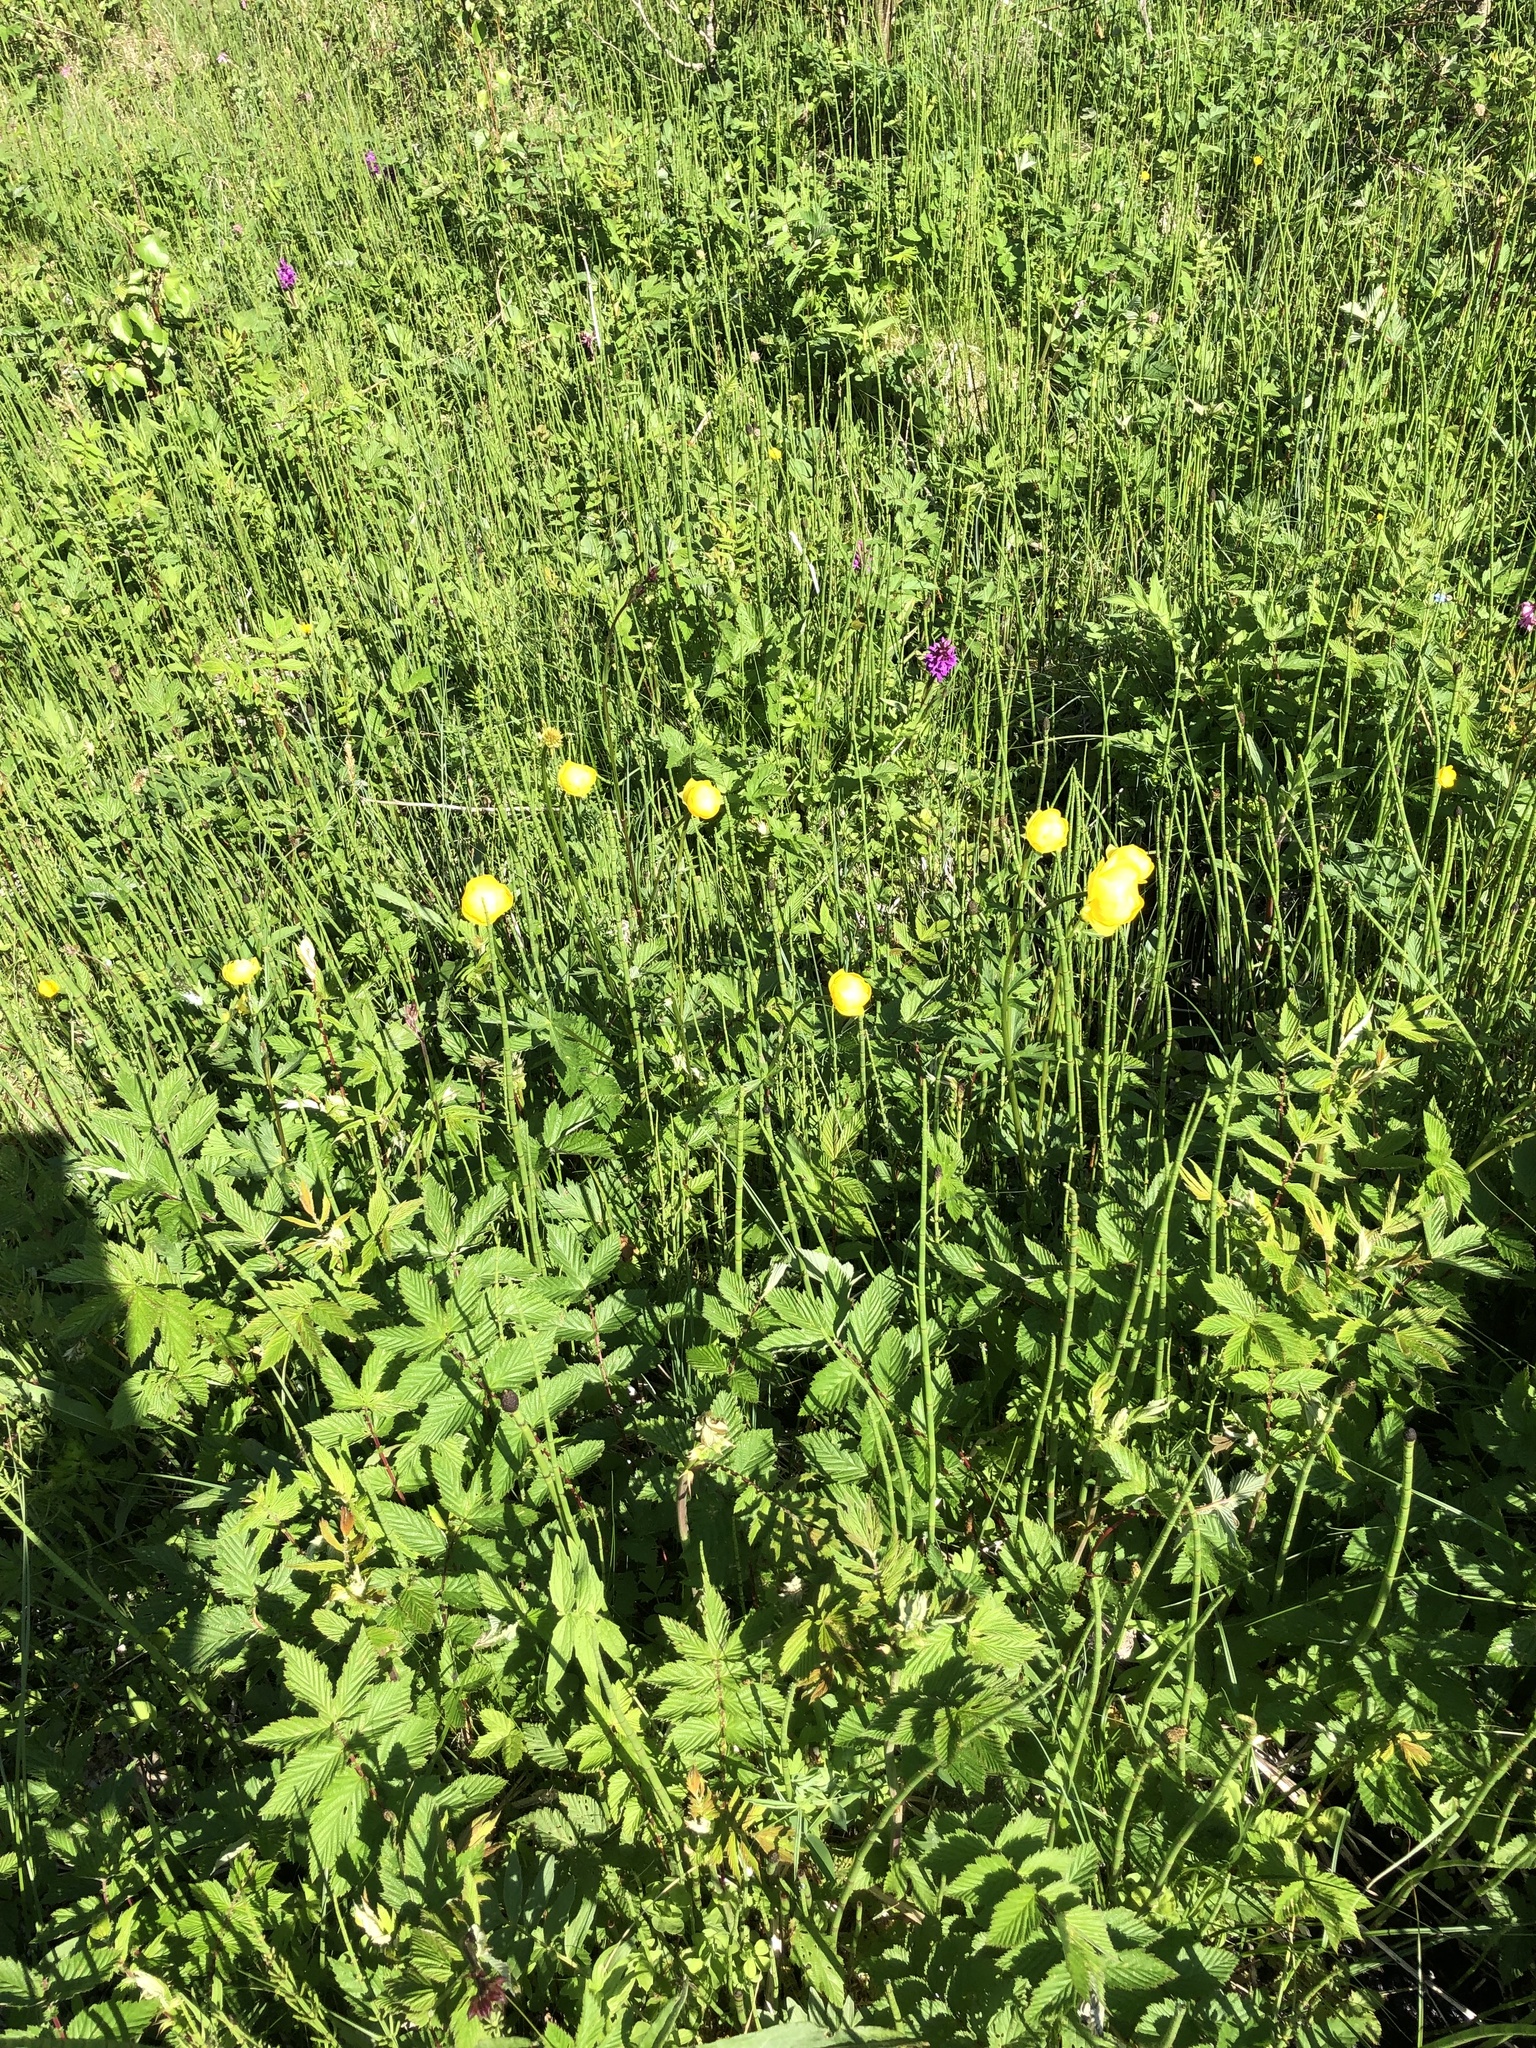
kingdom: Plantae
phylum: Tracheophyta
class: Magnoliopsida
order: Ranunculales
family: Ranunculaceae
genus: Trollius
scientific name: Trollius europaeus
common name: European globeflower
